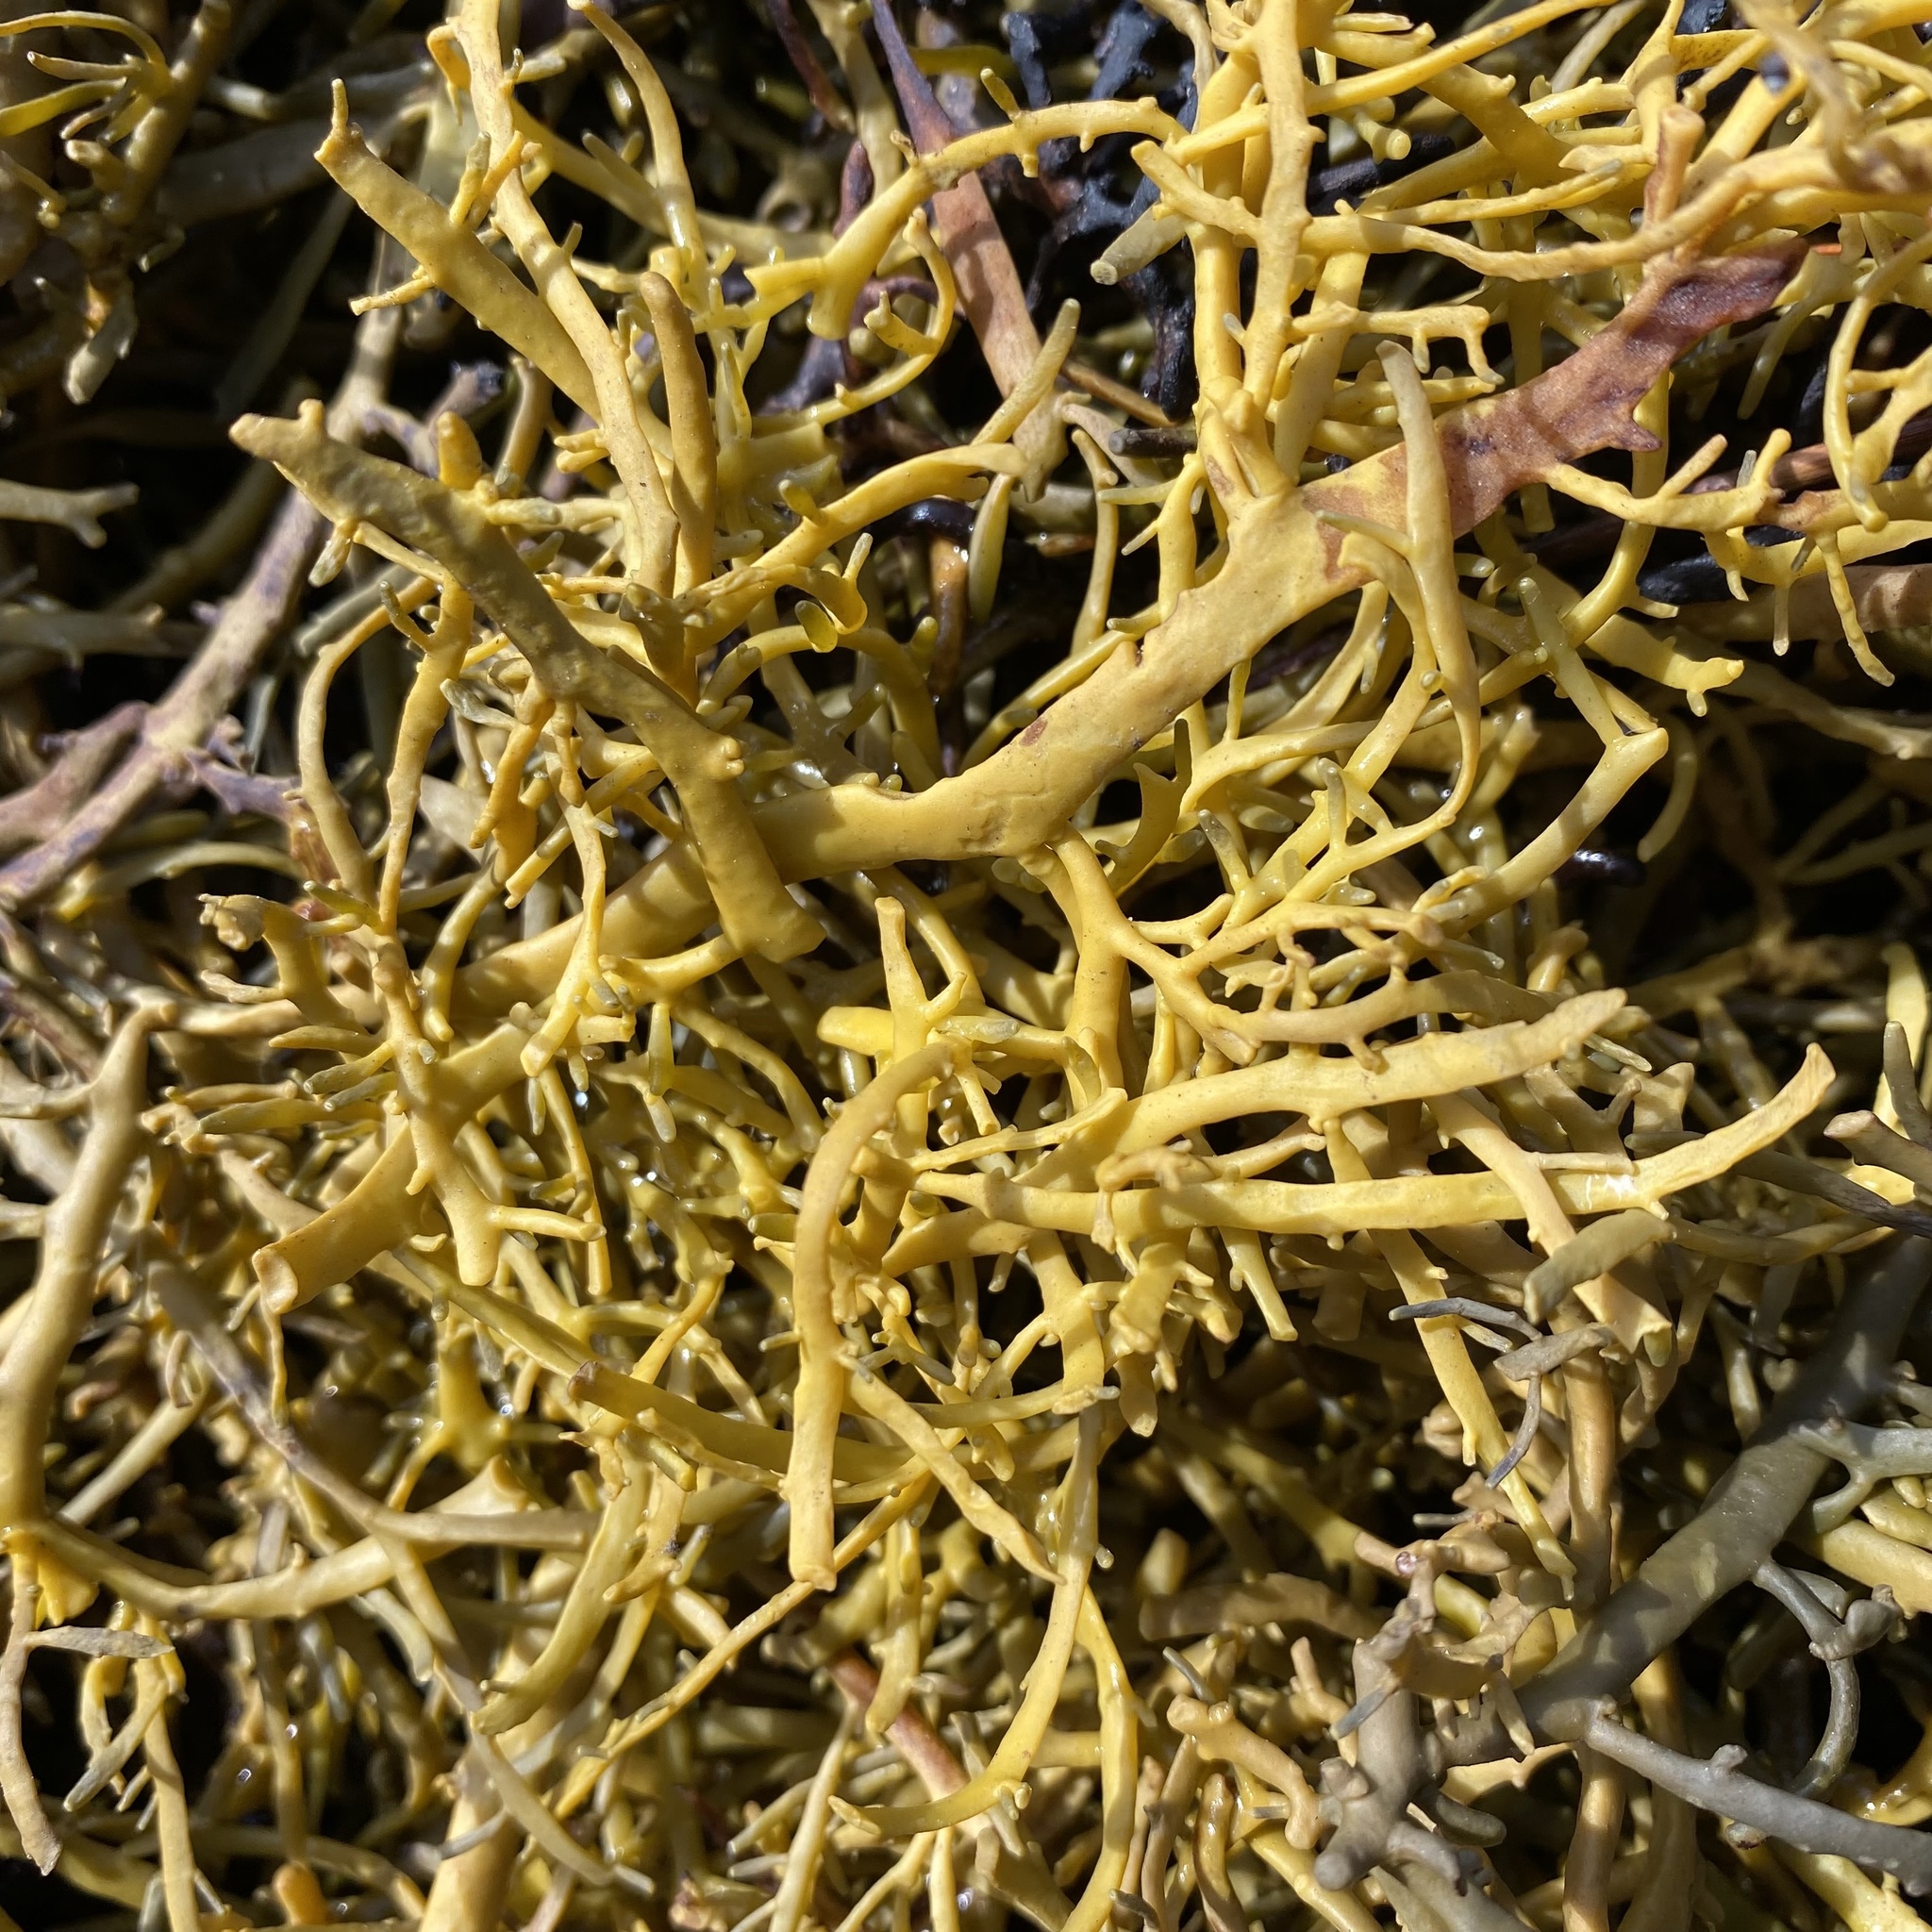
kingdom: Chromista
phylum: Ochrophyta
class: Phaeophyceae
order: Fucales
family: Fucaceae
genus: Ascophyllum
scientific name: Ascophyllum nodosum
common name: Knotted wrack
